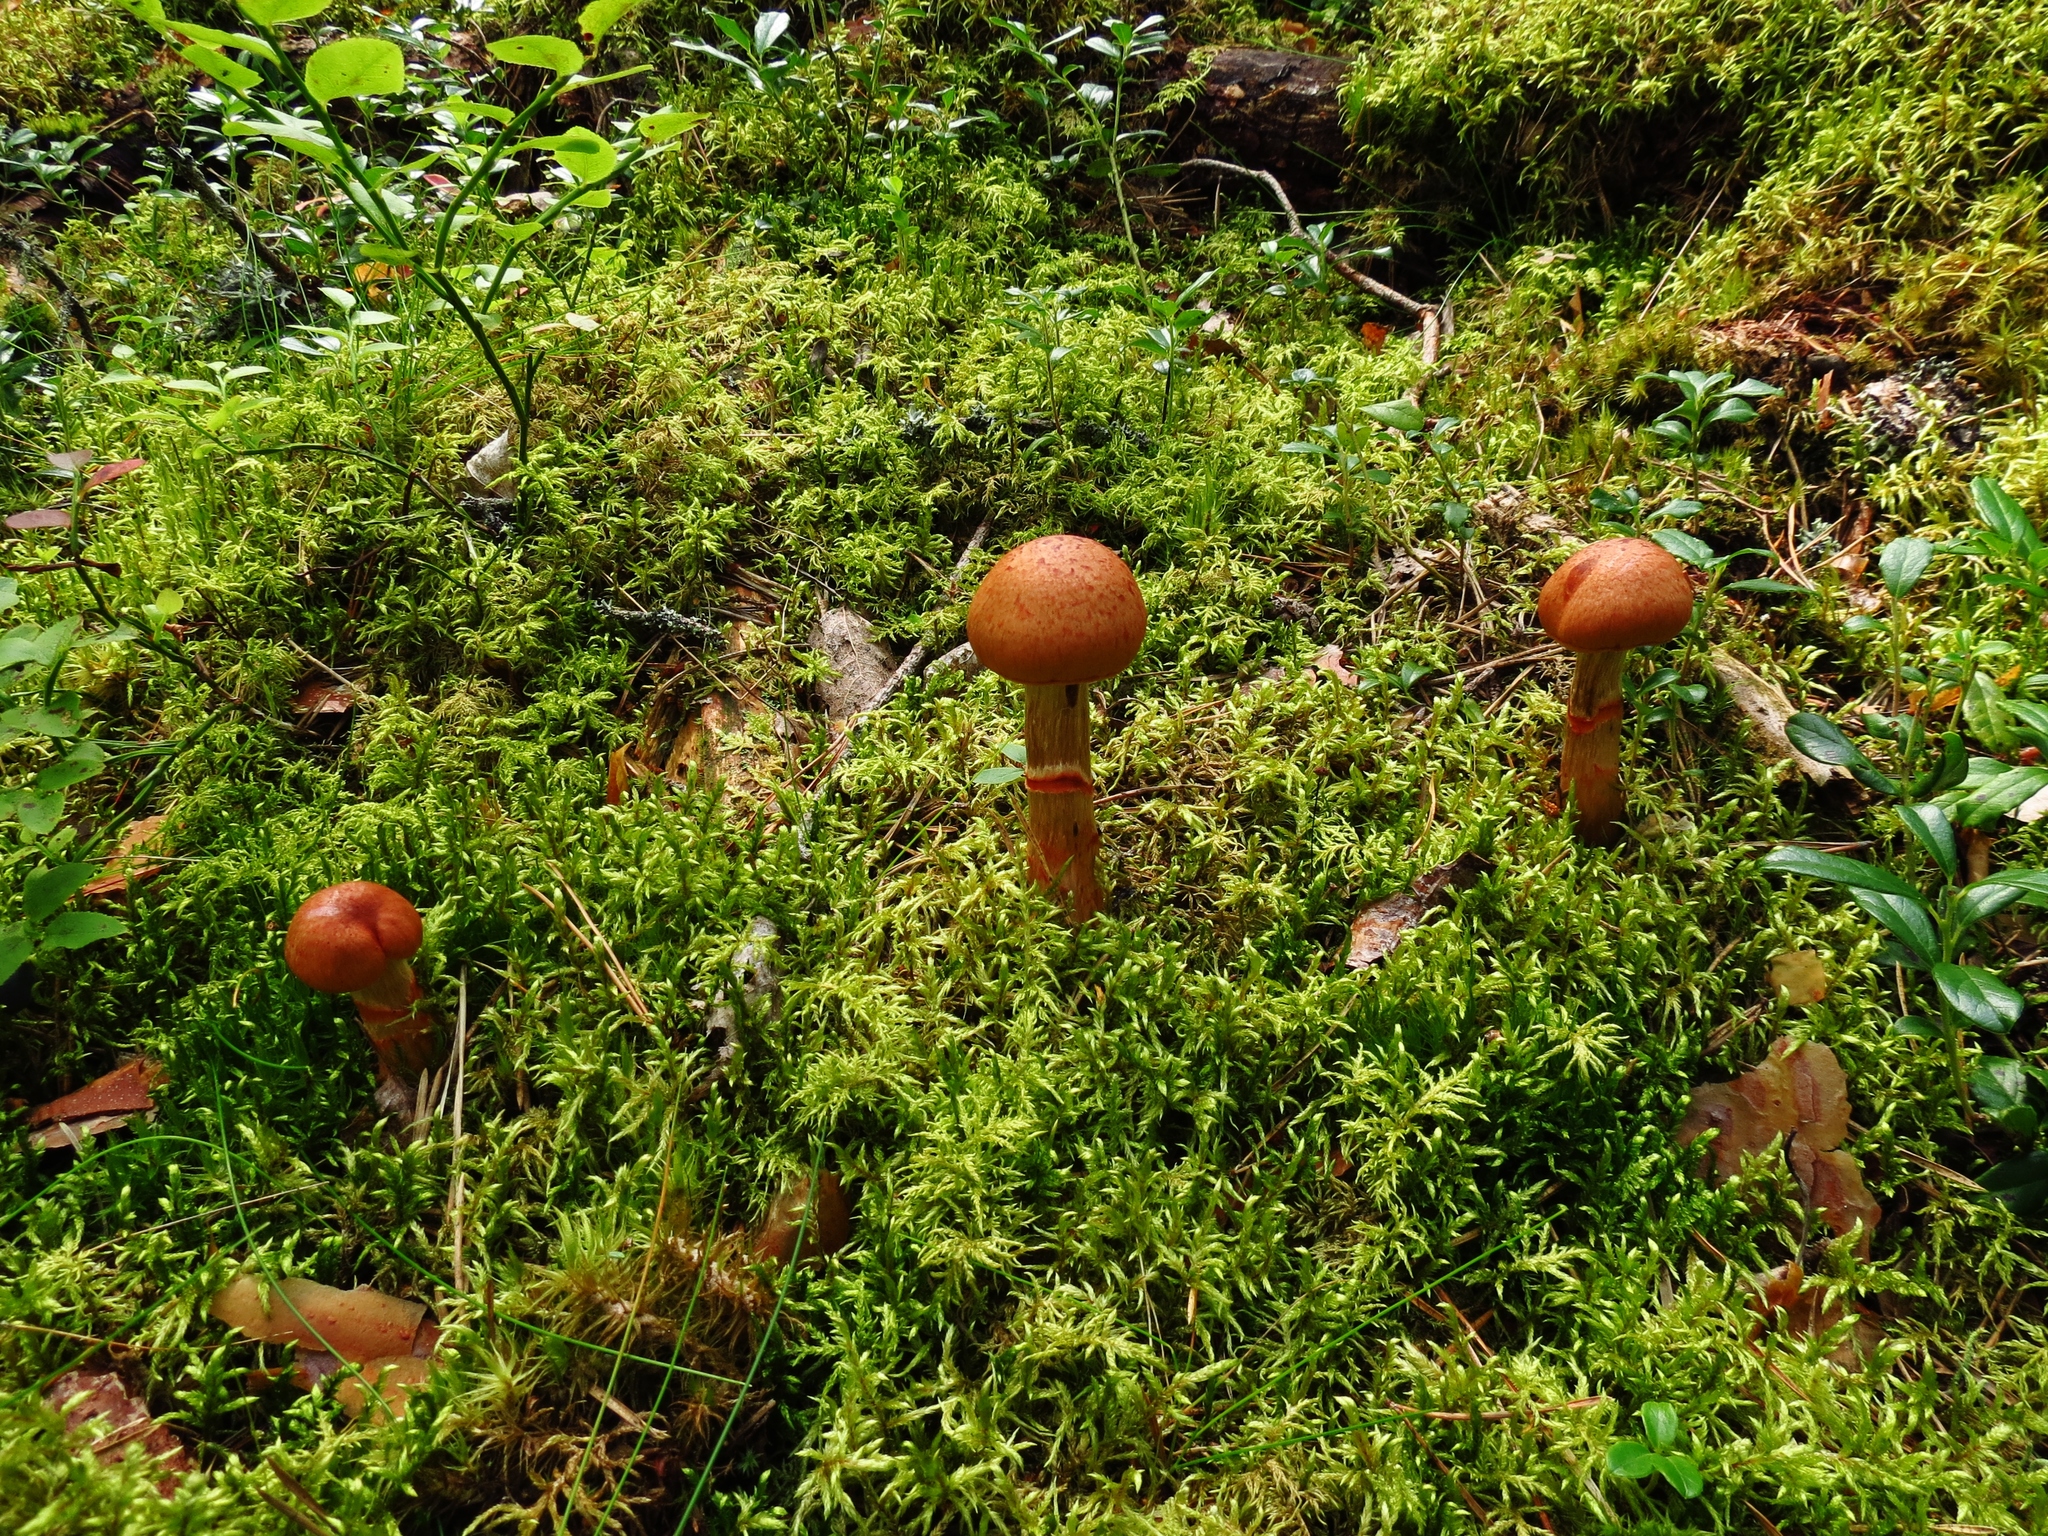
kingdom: Fungi
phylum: Basidiomycota
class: Agaricomycetes
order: Agaricales
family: Cortinariaceae
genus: Cortinarius
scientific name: Cortinarius armillatus
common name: Red banded webcap
